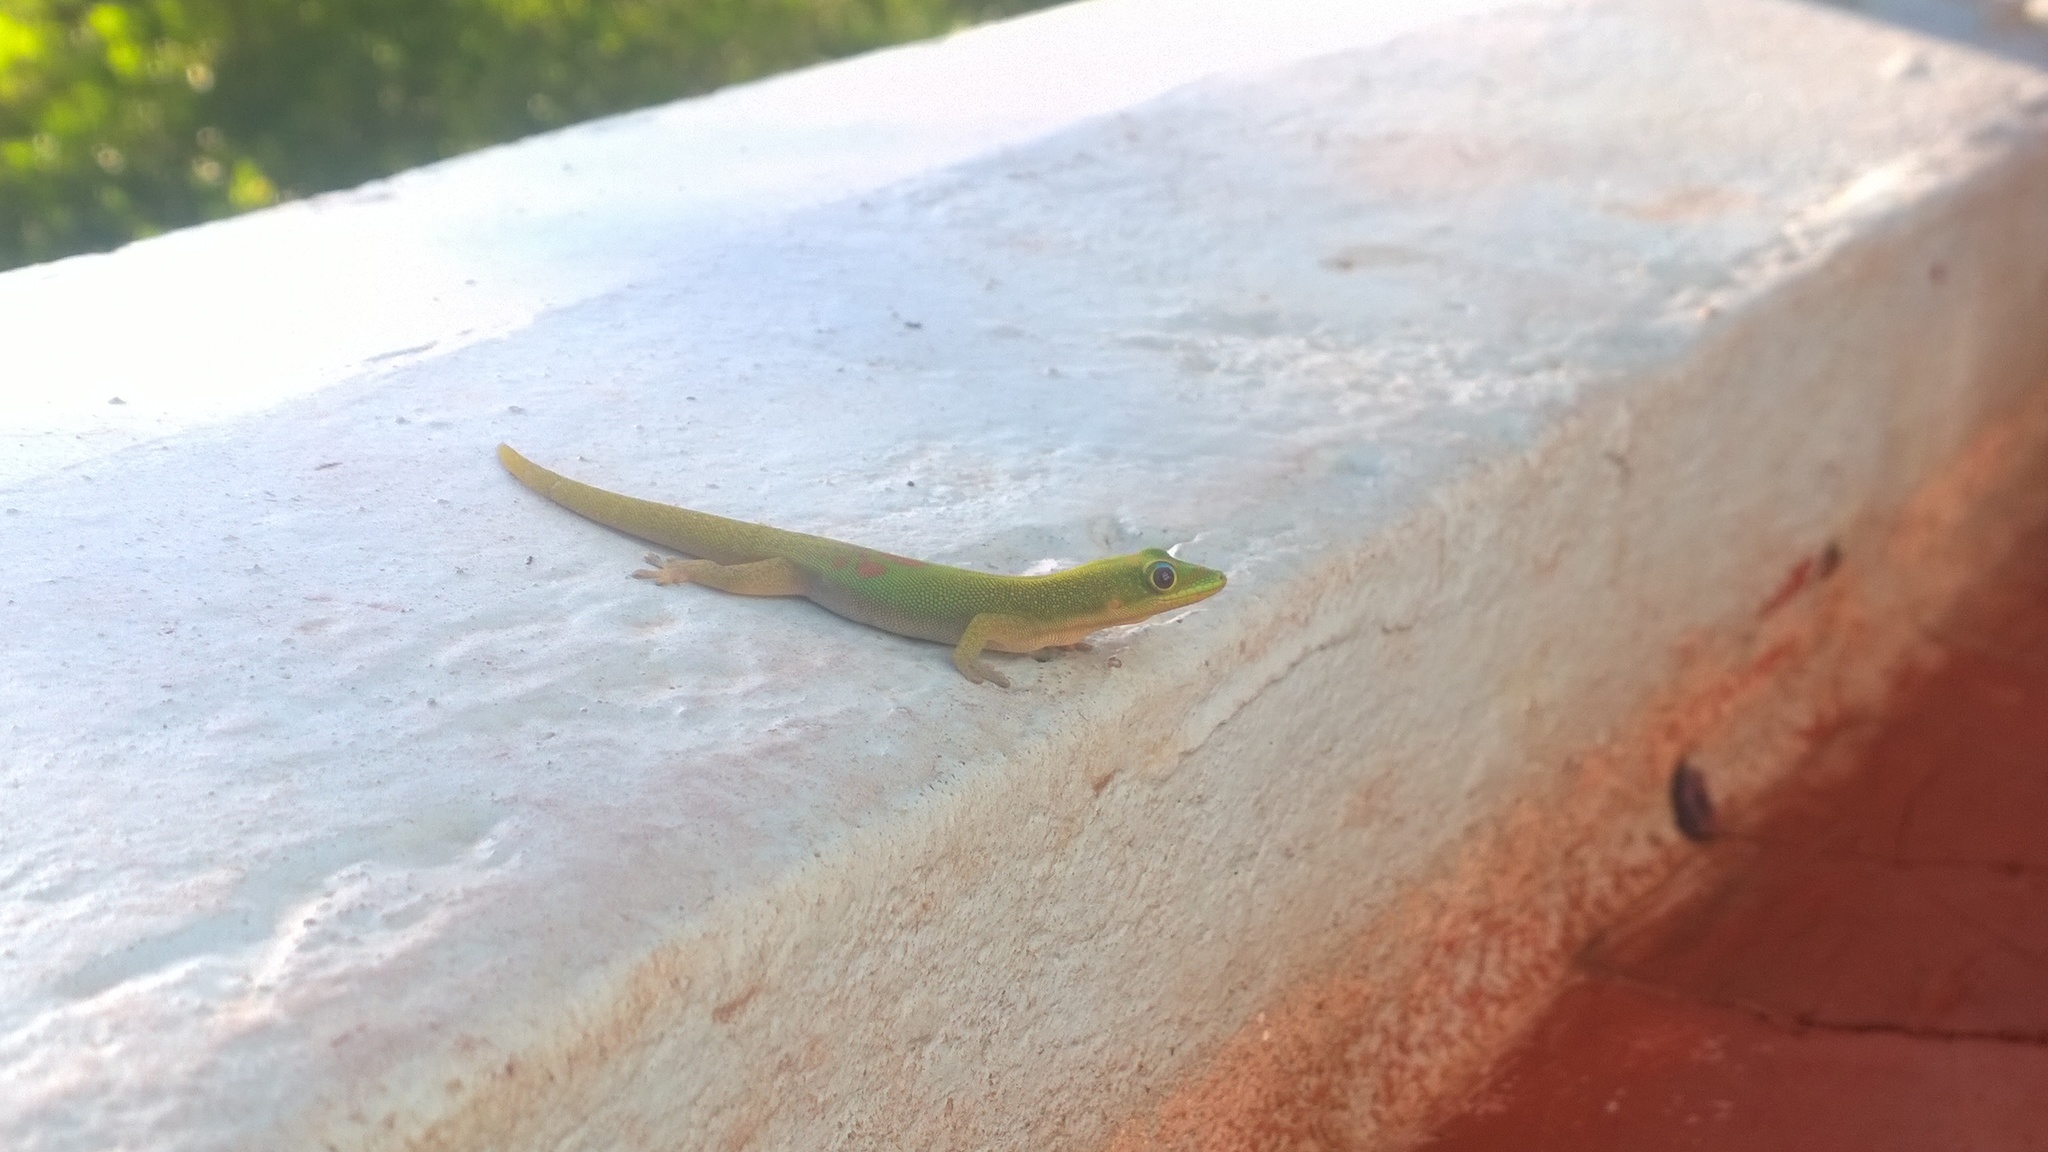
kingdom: Animalia
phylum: Chordata
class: Squamata
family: Gekkonidae
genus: Phelsuma
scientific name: Phelsuma laticauda
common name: Gold dust day gecko
